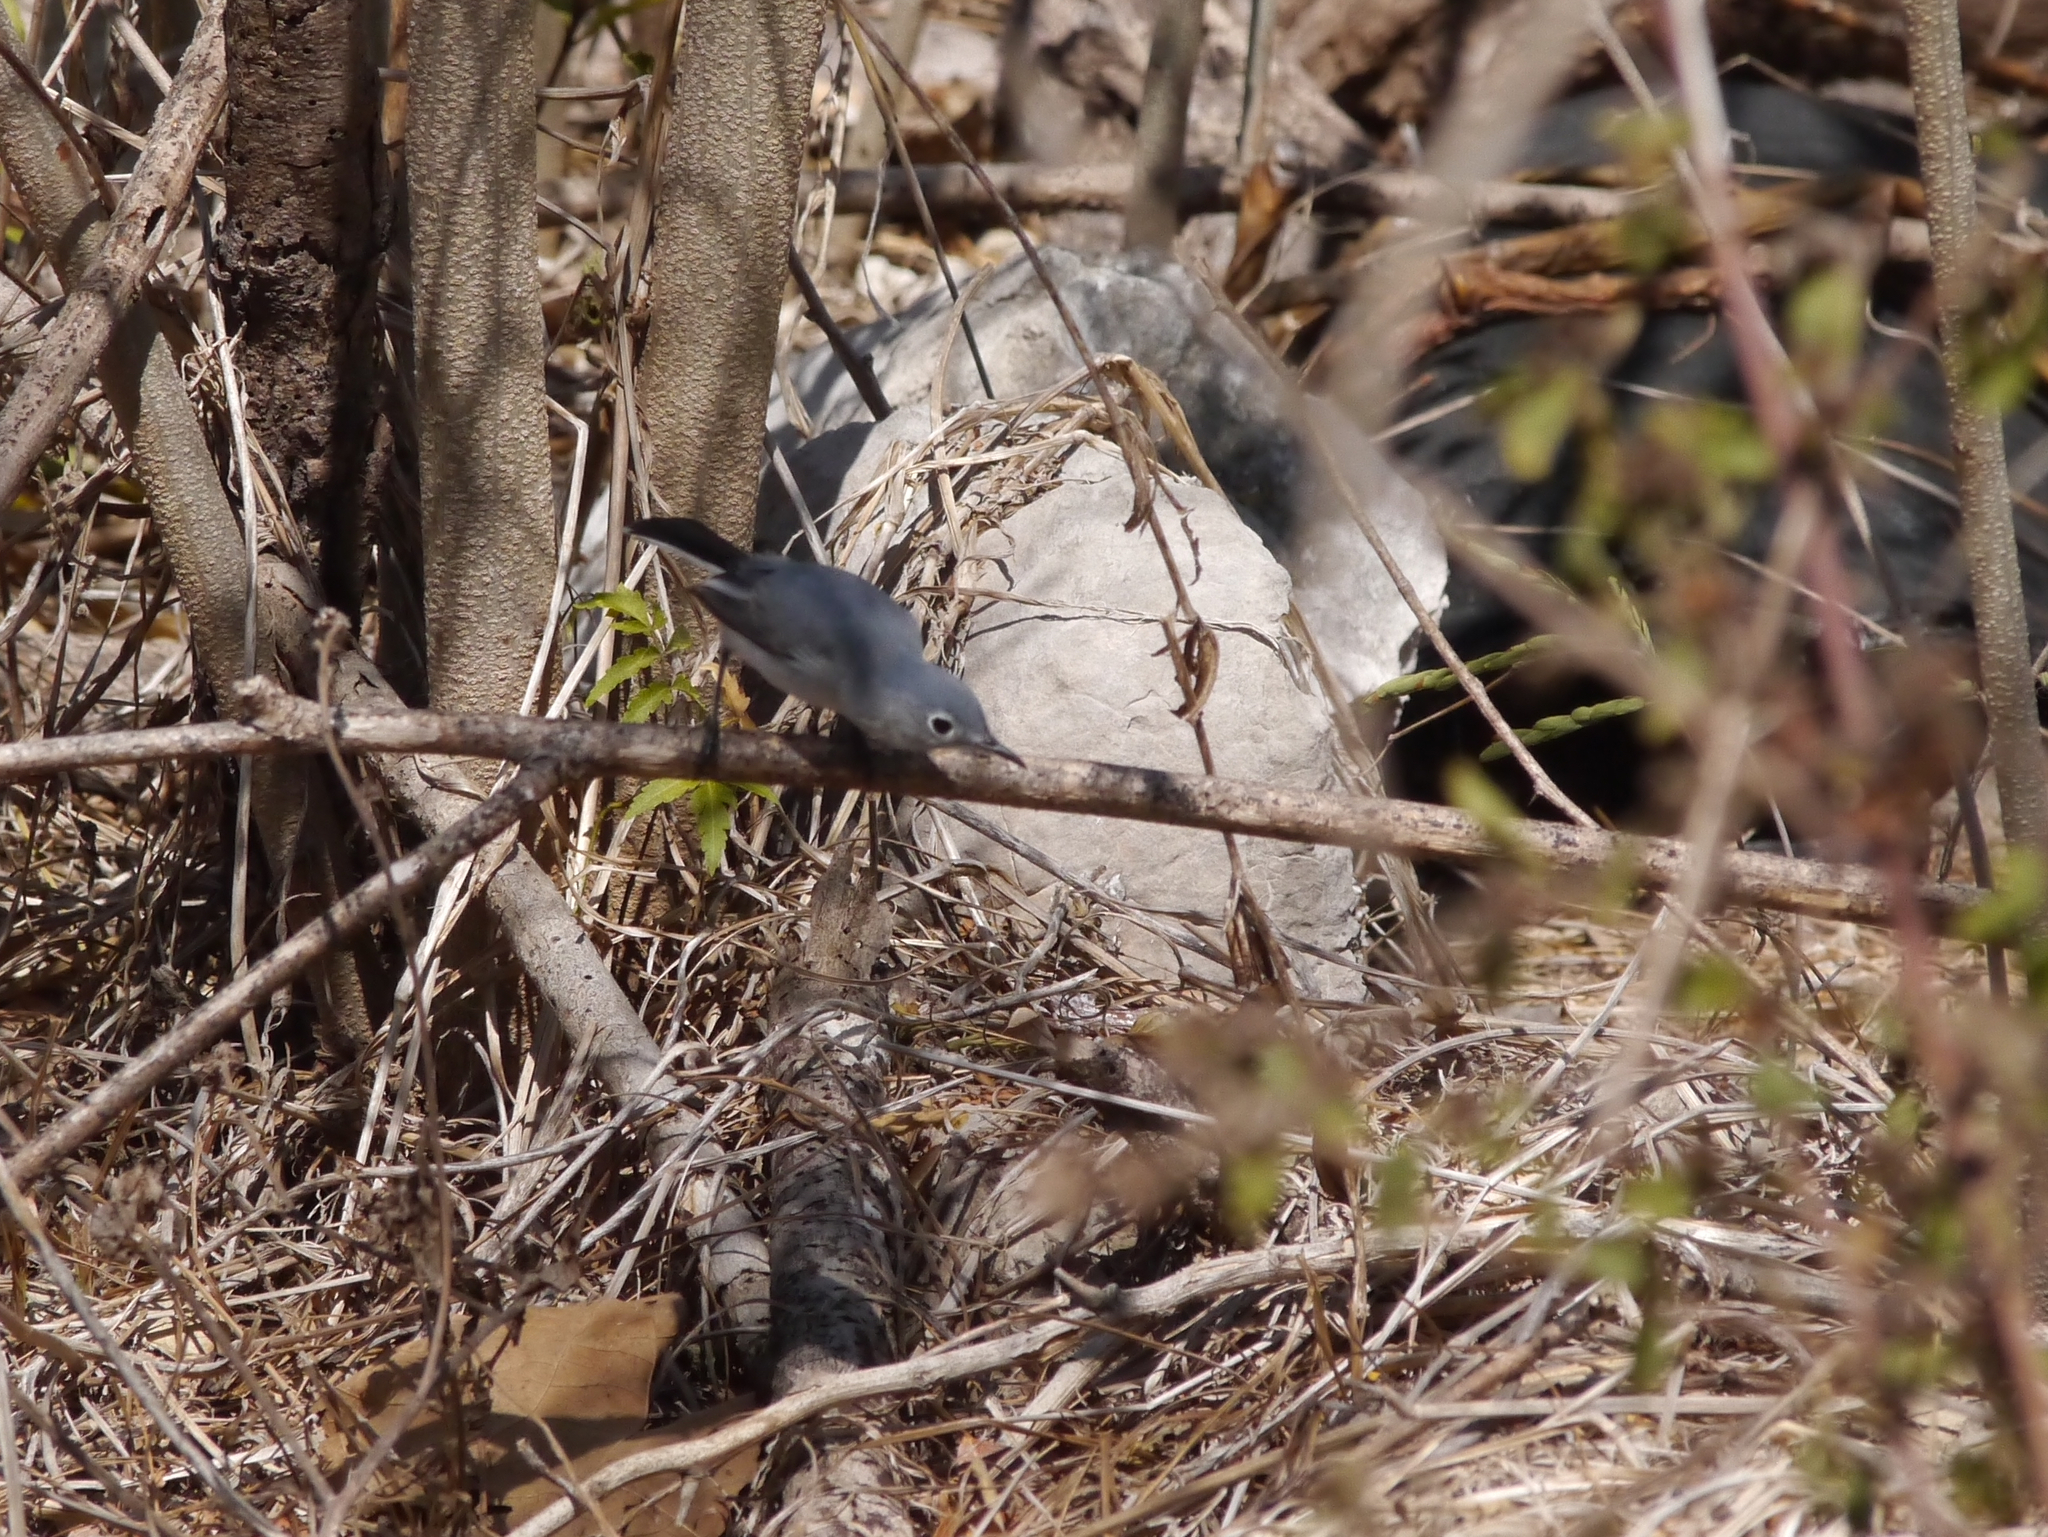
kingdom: Animalia
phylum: Chordata
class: Aves
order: Passeriformes
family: Polioptilidae
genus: Polioptila
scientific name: Polioptila caerulea
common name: Blue-gray gnatcatcher
